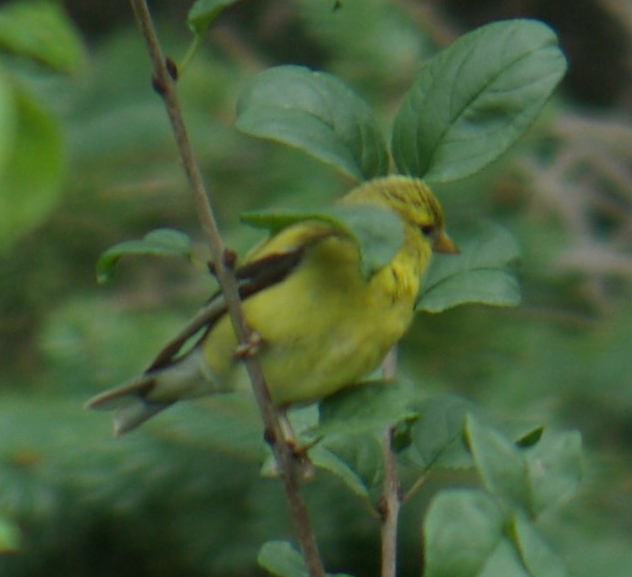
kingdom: Animalia
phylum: Chordata
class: Aves
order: Passeriformes
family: Fringillidae
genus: Spinus
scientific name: Spinus tristis
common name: American goldfinch
